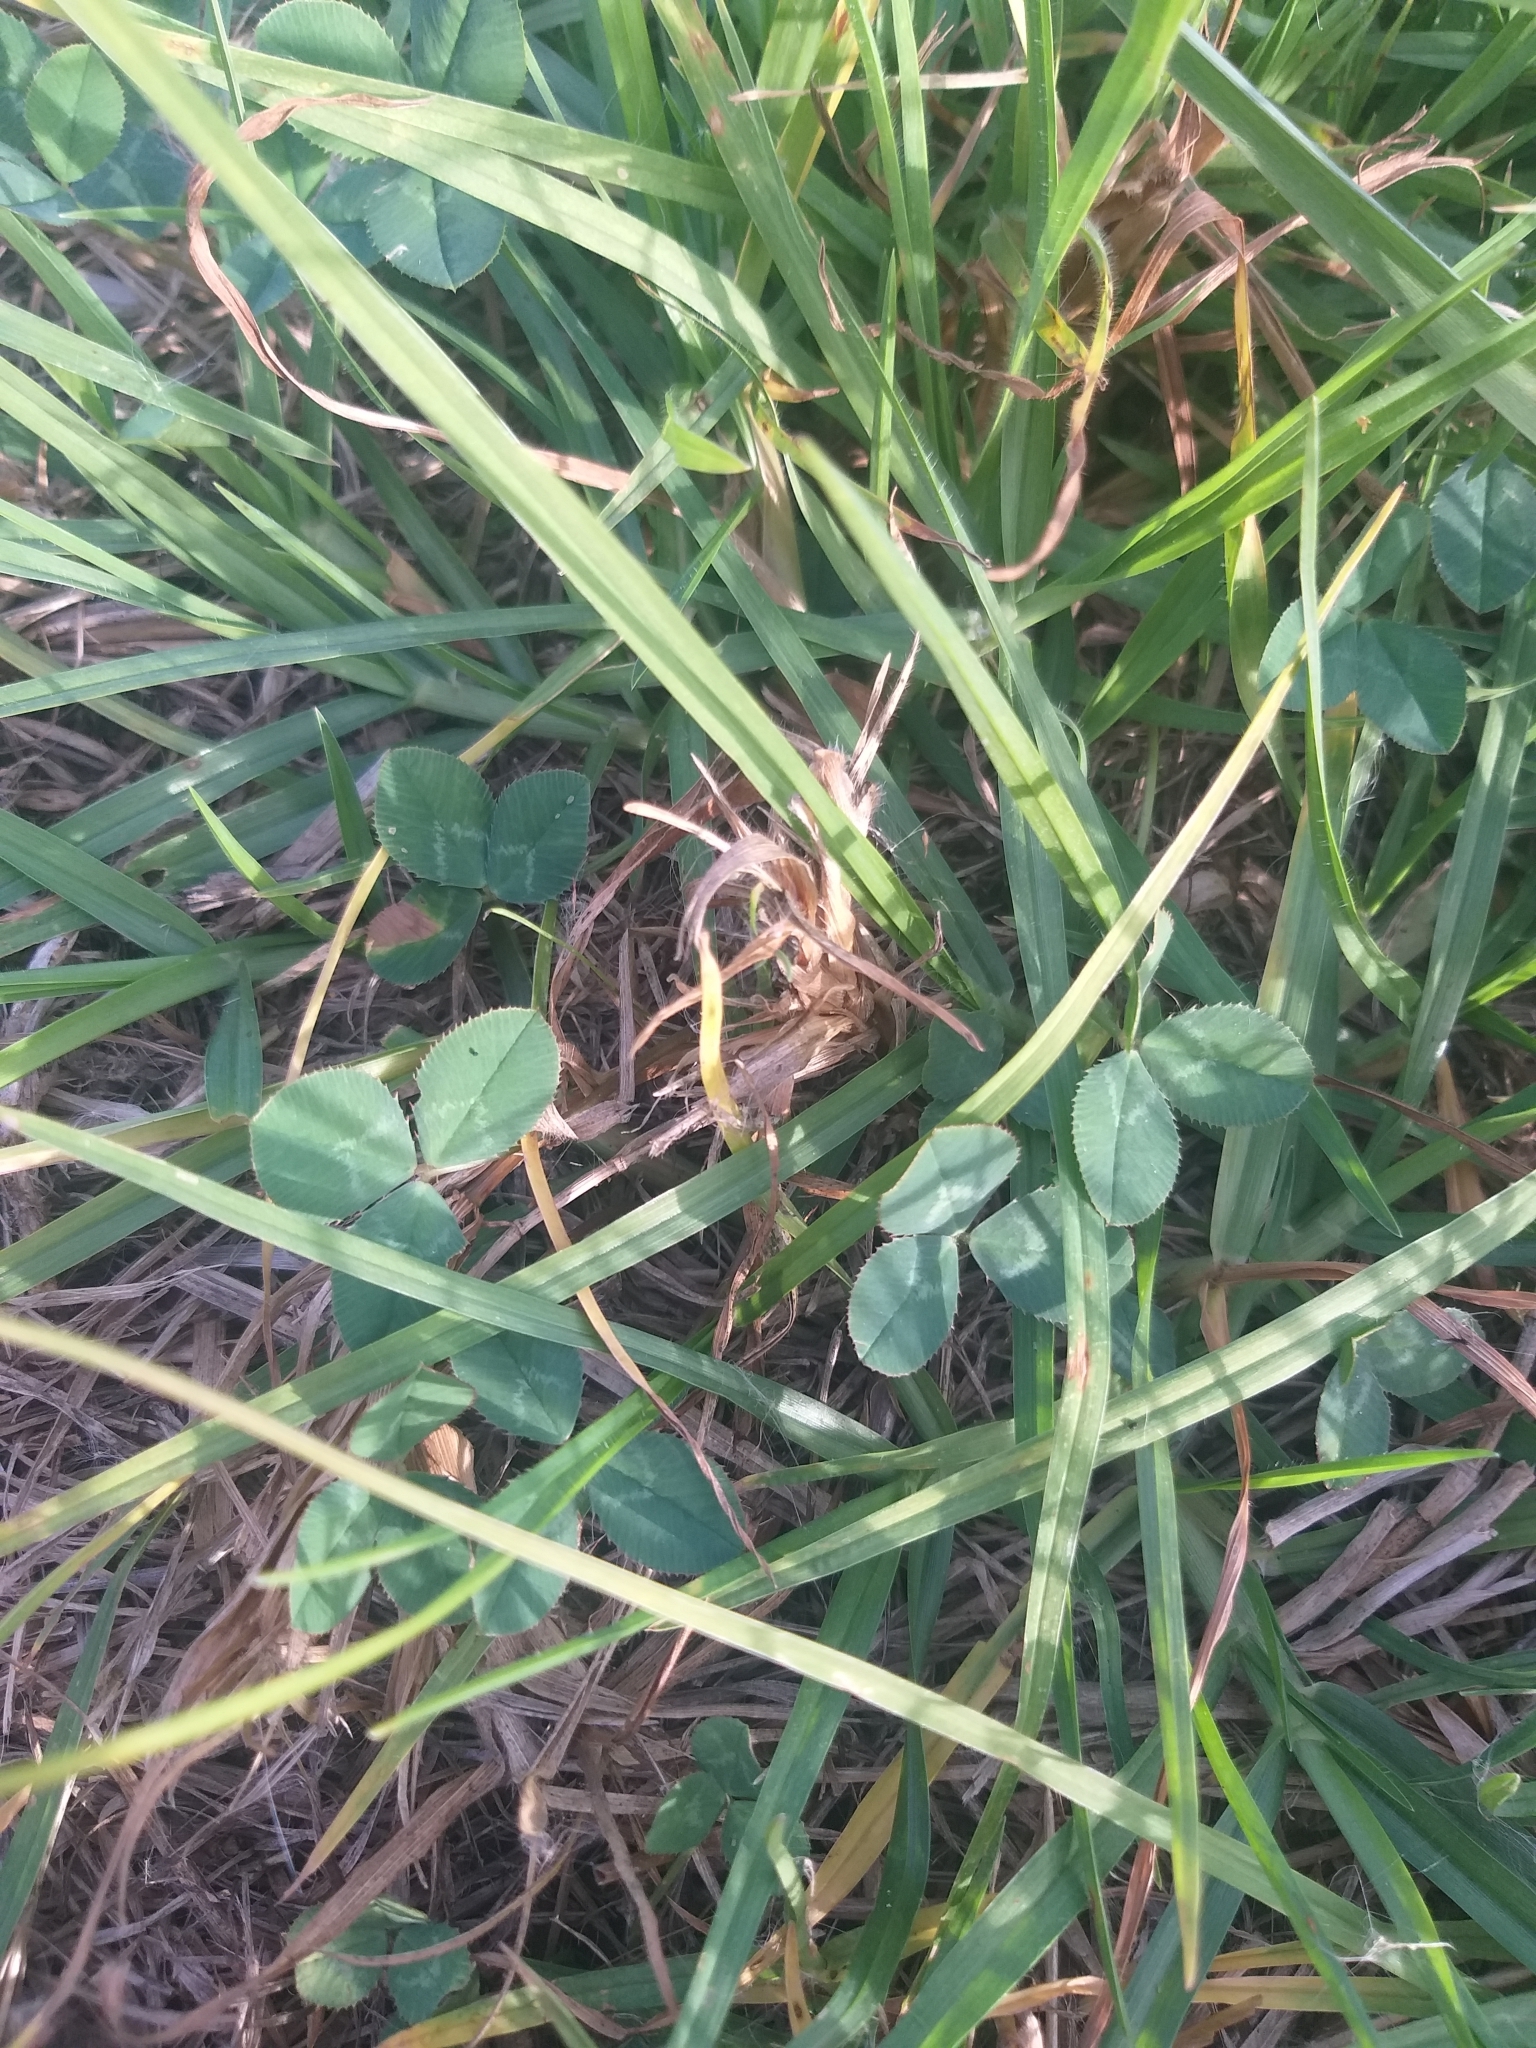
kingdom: Plantae
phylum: Tracheophyta
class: Magnoliopsida
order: Fabales
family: Fabaceae
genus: Trifolium
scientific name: Trifolium repens
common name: White clover
